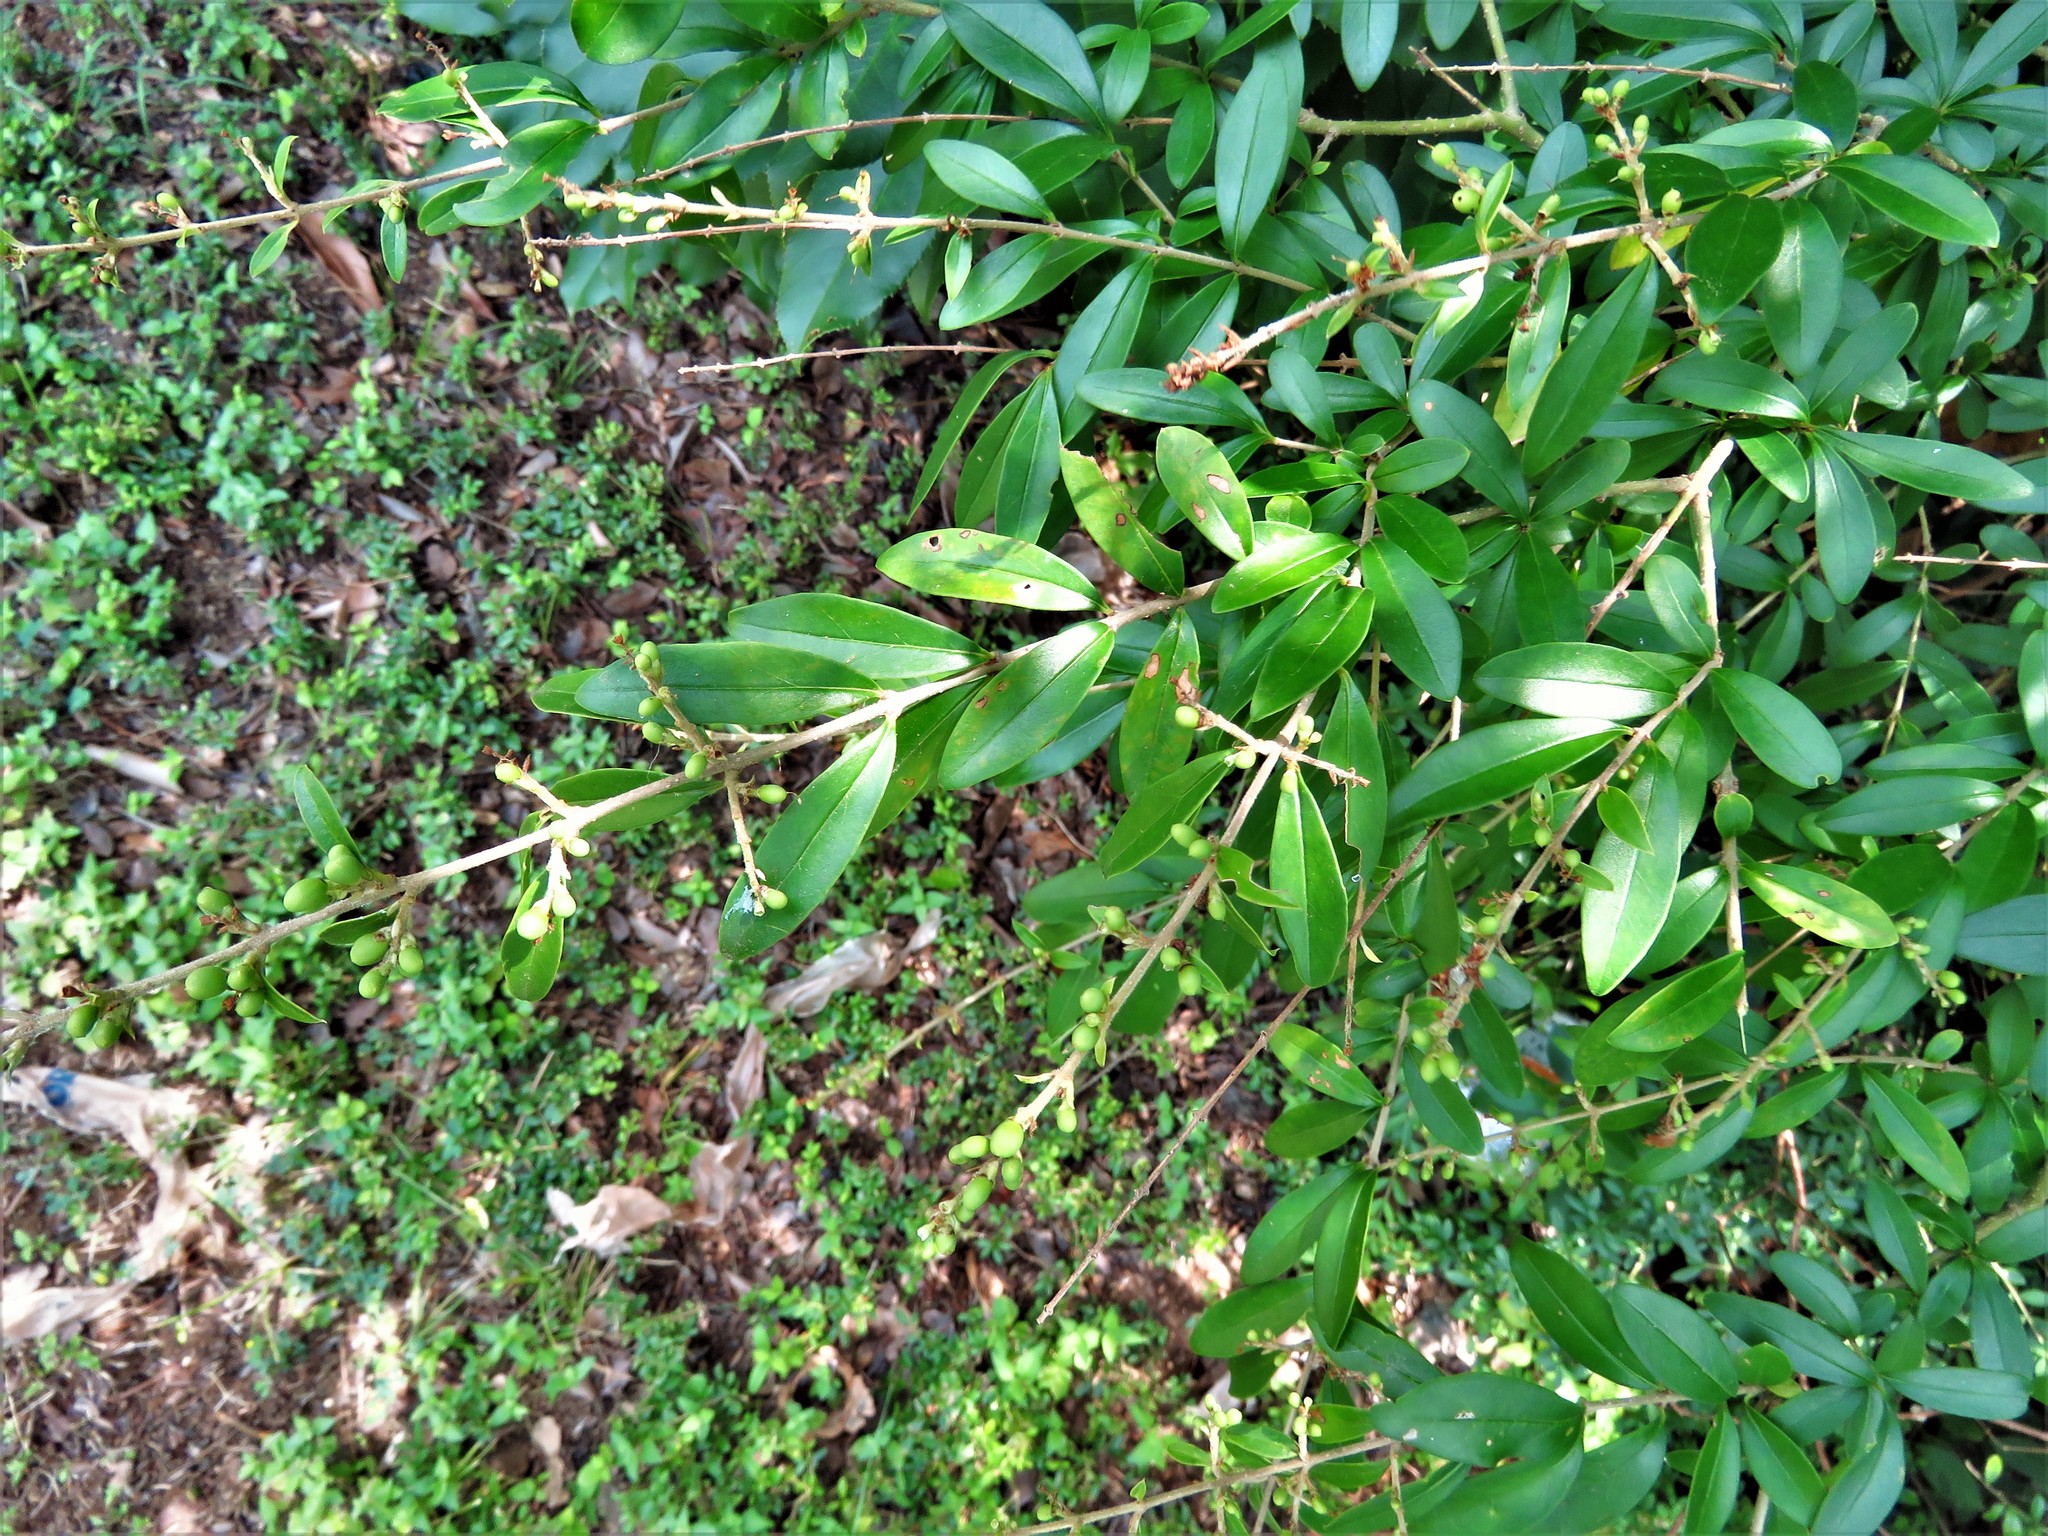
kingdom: Plantae
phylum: Tracheophyta
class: Magnoliopsida
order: Lamiales
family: Oleaceae
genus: Ligustrum
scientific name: Ligustrum quihoui
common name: Waxyleaf privet
